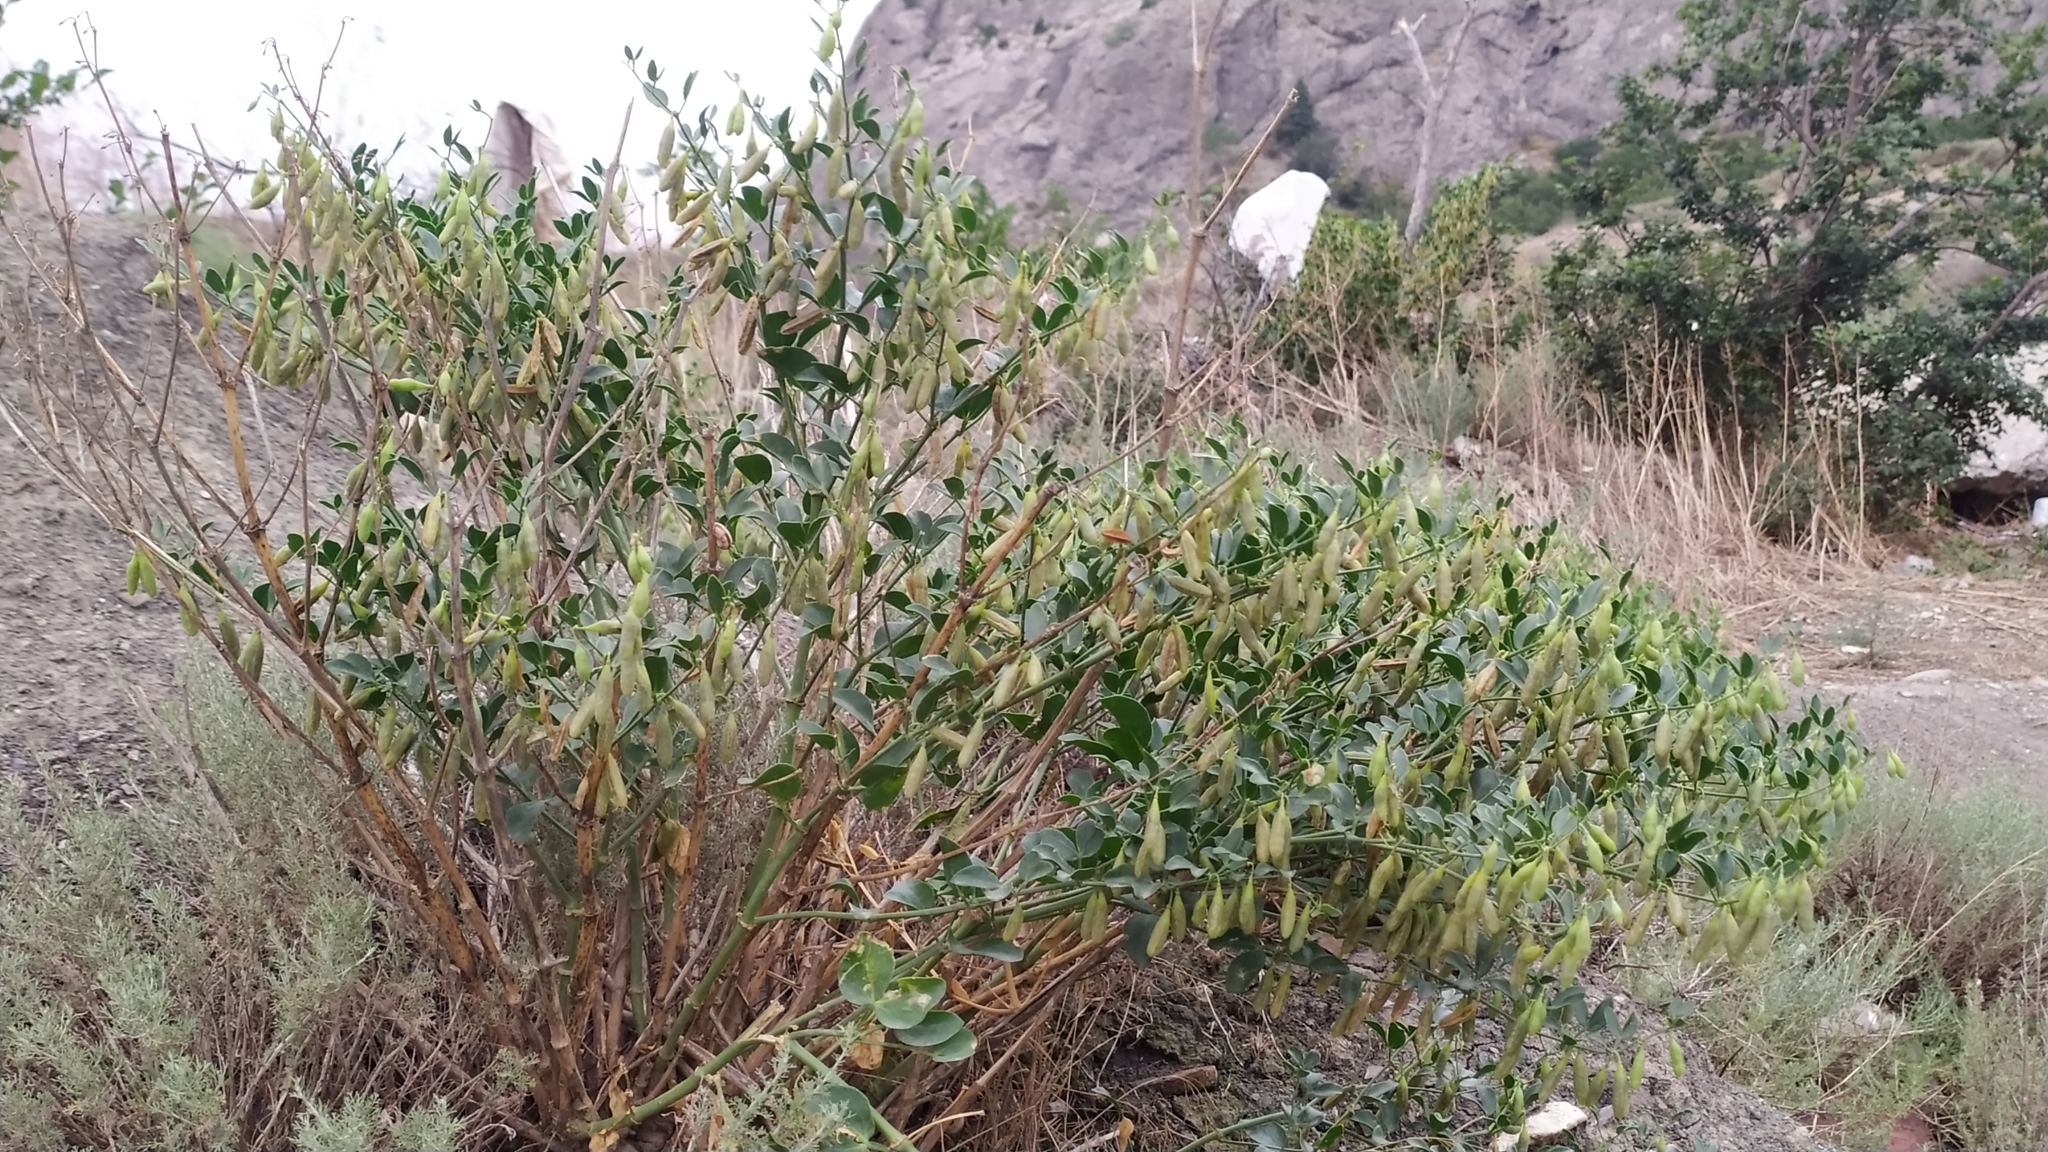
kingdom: Plantae
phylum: Tracheophyta
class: Magnoliopsida
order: Zygophyllales
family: Zygophyllaceae
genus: Zygophyllum
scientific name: Zygophyllum fabago
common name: Syrian beancaper
